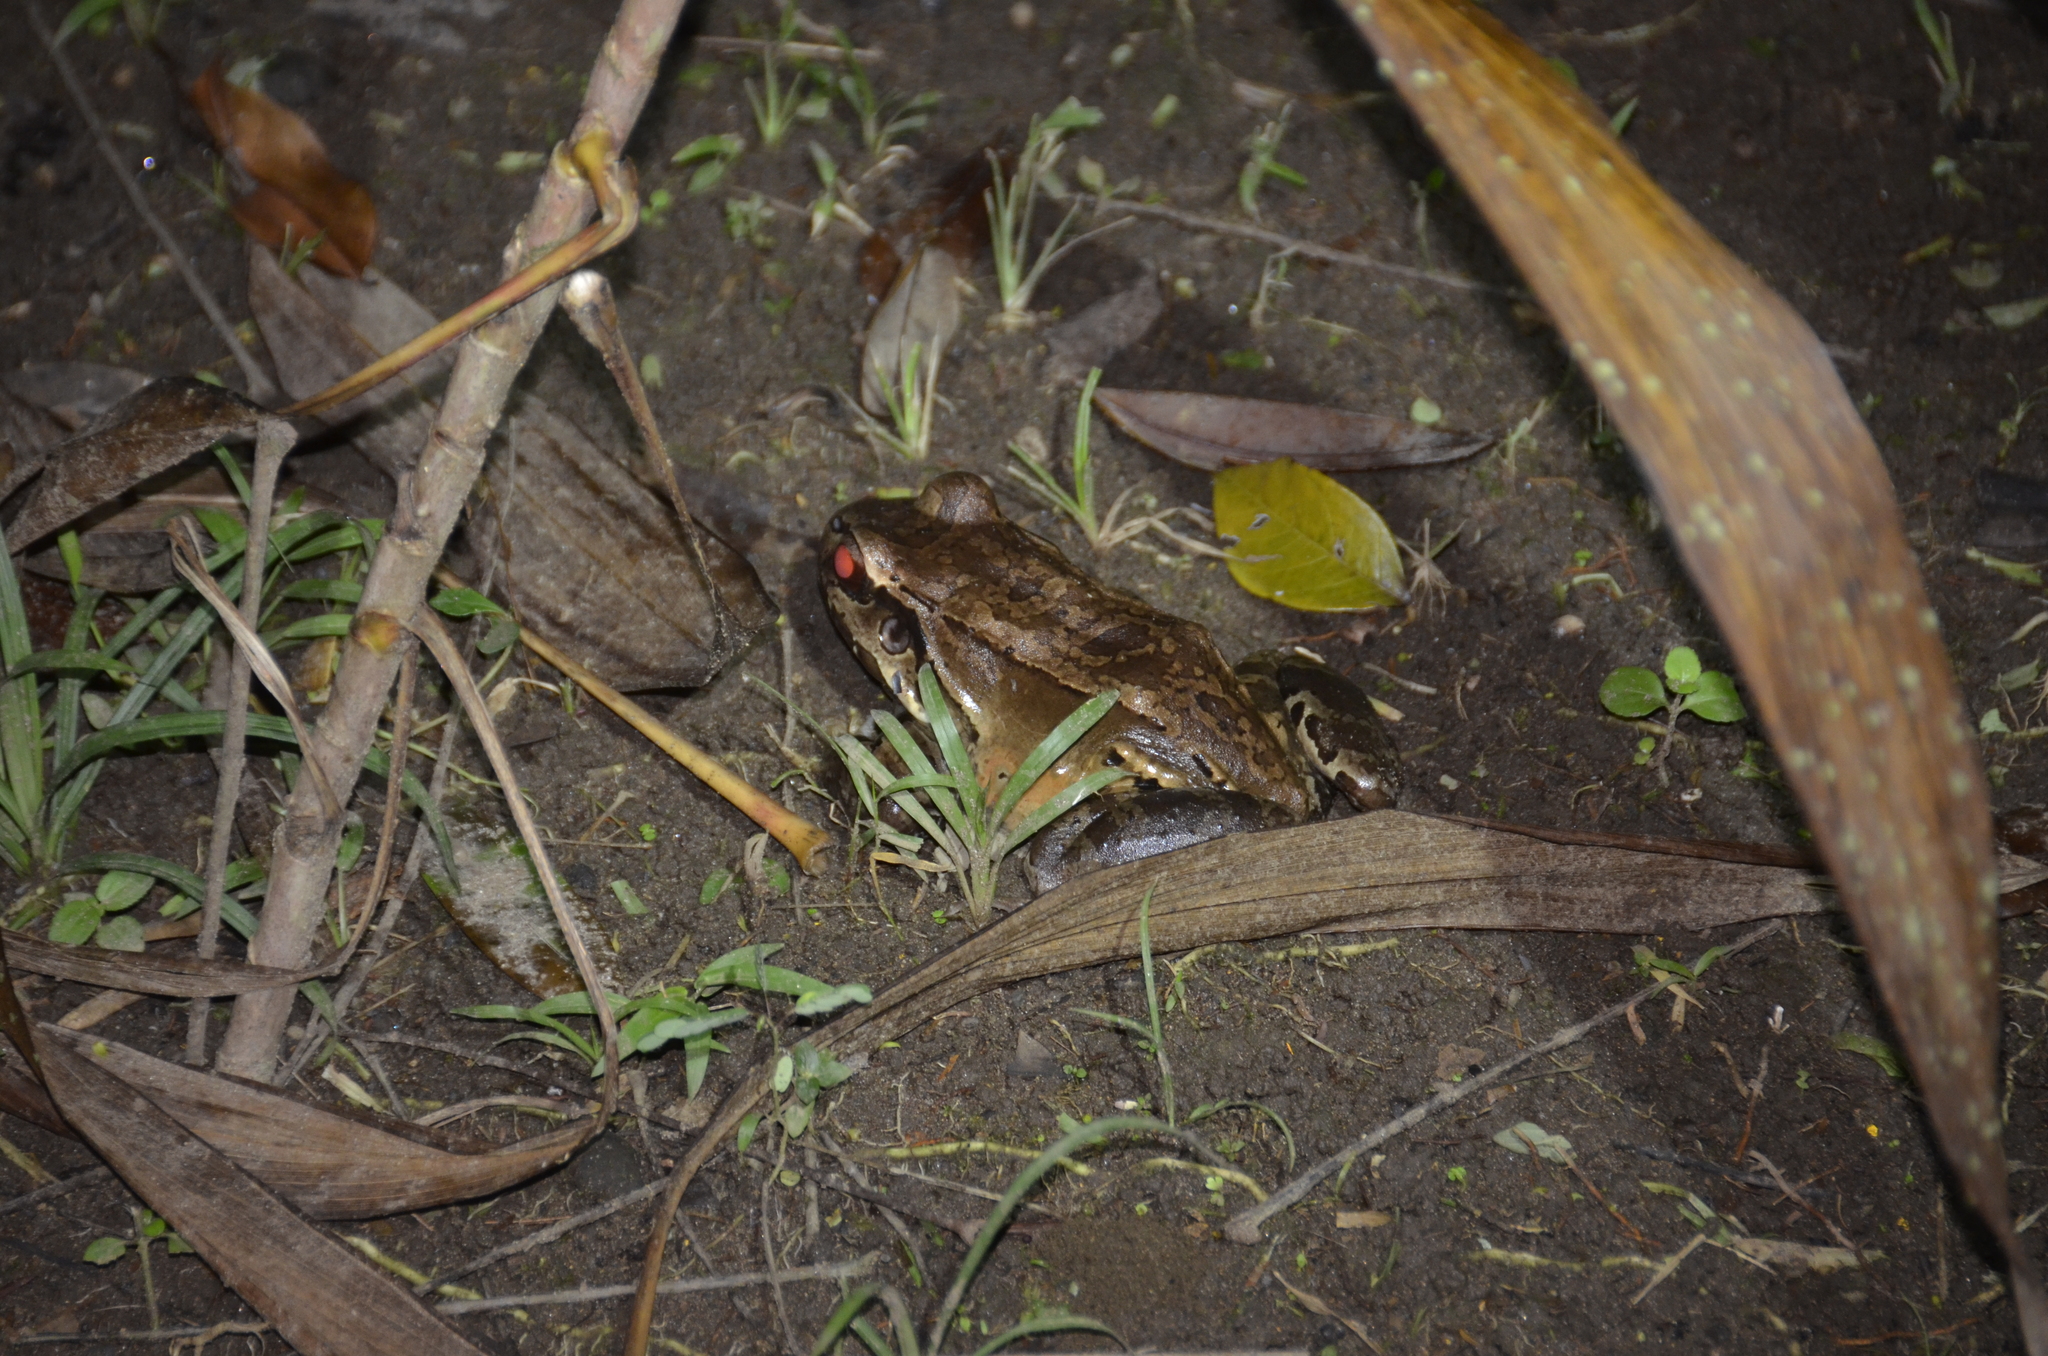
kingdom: Animalia
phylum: Chordata
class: Amphibia
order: Anura
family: Leptodactylidae
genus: Leptodactylus
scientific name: Leptodactylus savagei
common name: Savage's thin-toed frog
